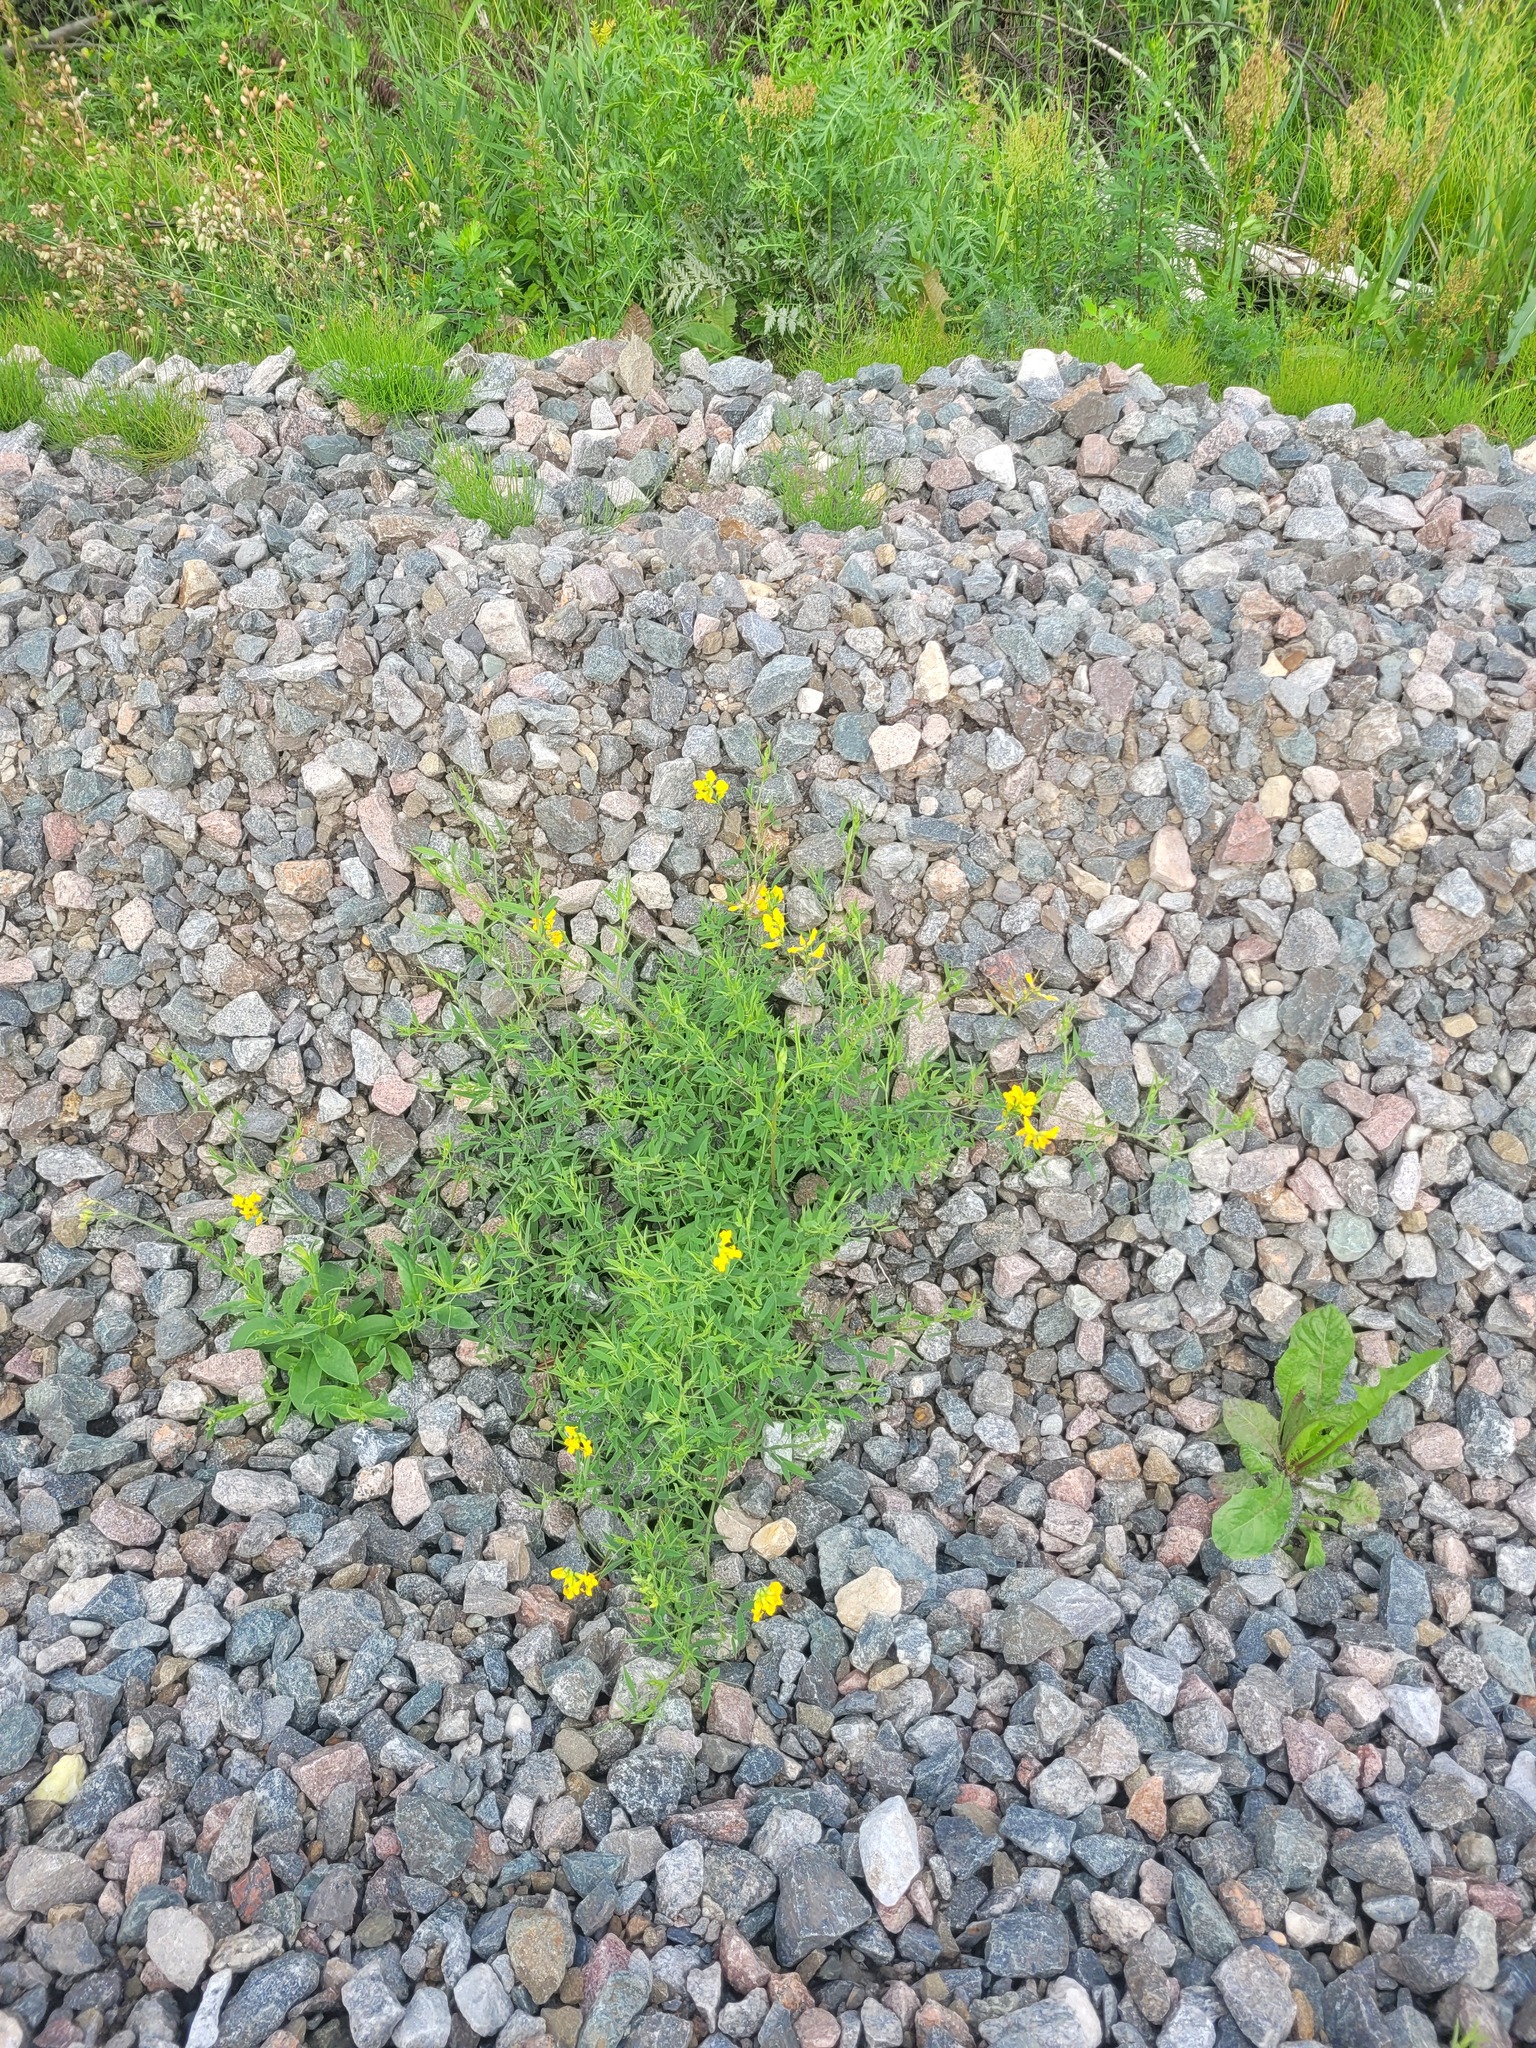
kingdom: Plantae
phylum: Tracheophyta
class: Magnoliopsida
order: Fabales
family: Fabaceae
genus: Lathyrus
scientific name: Lathyrus pratensis
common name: Meadow vetchling
